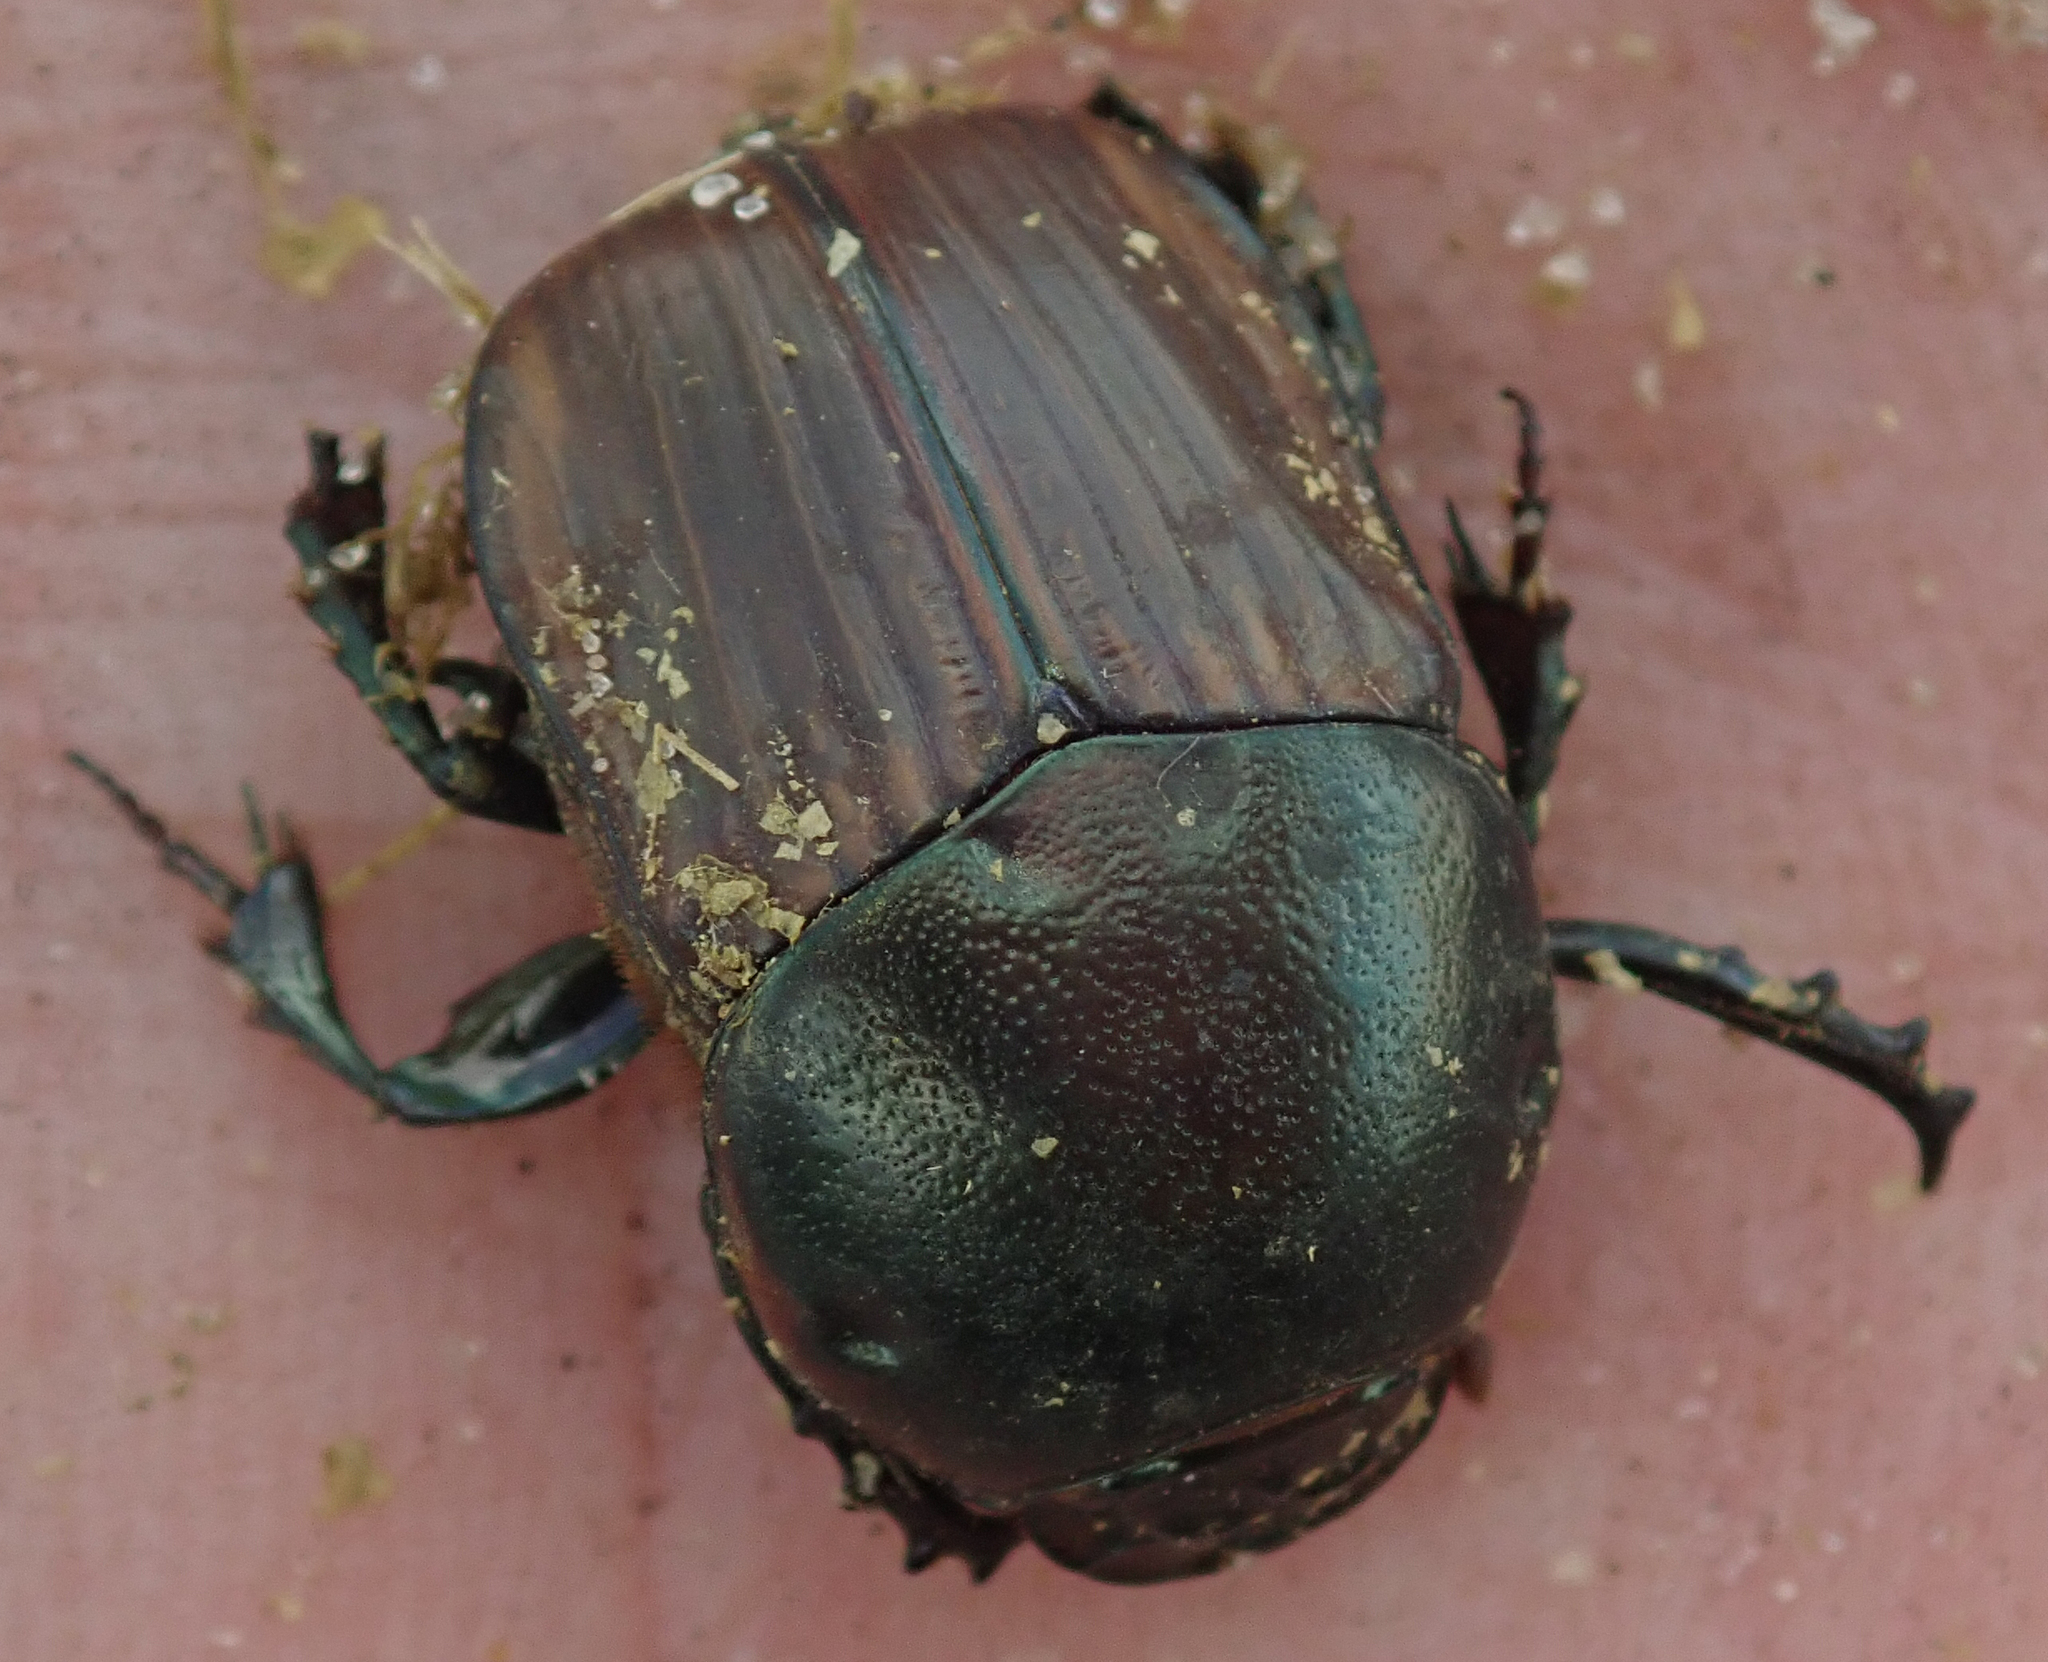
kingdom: Animalia
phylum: Arthropoda
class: Insecta
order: Coleoptera
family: Scarabaeidae
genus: Onitis
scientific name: Onitis alexis
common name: Alexis dung beetle
